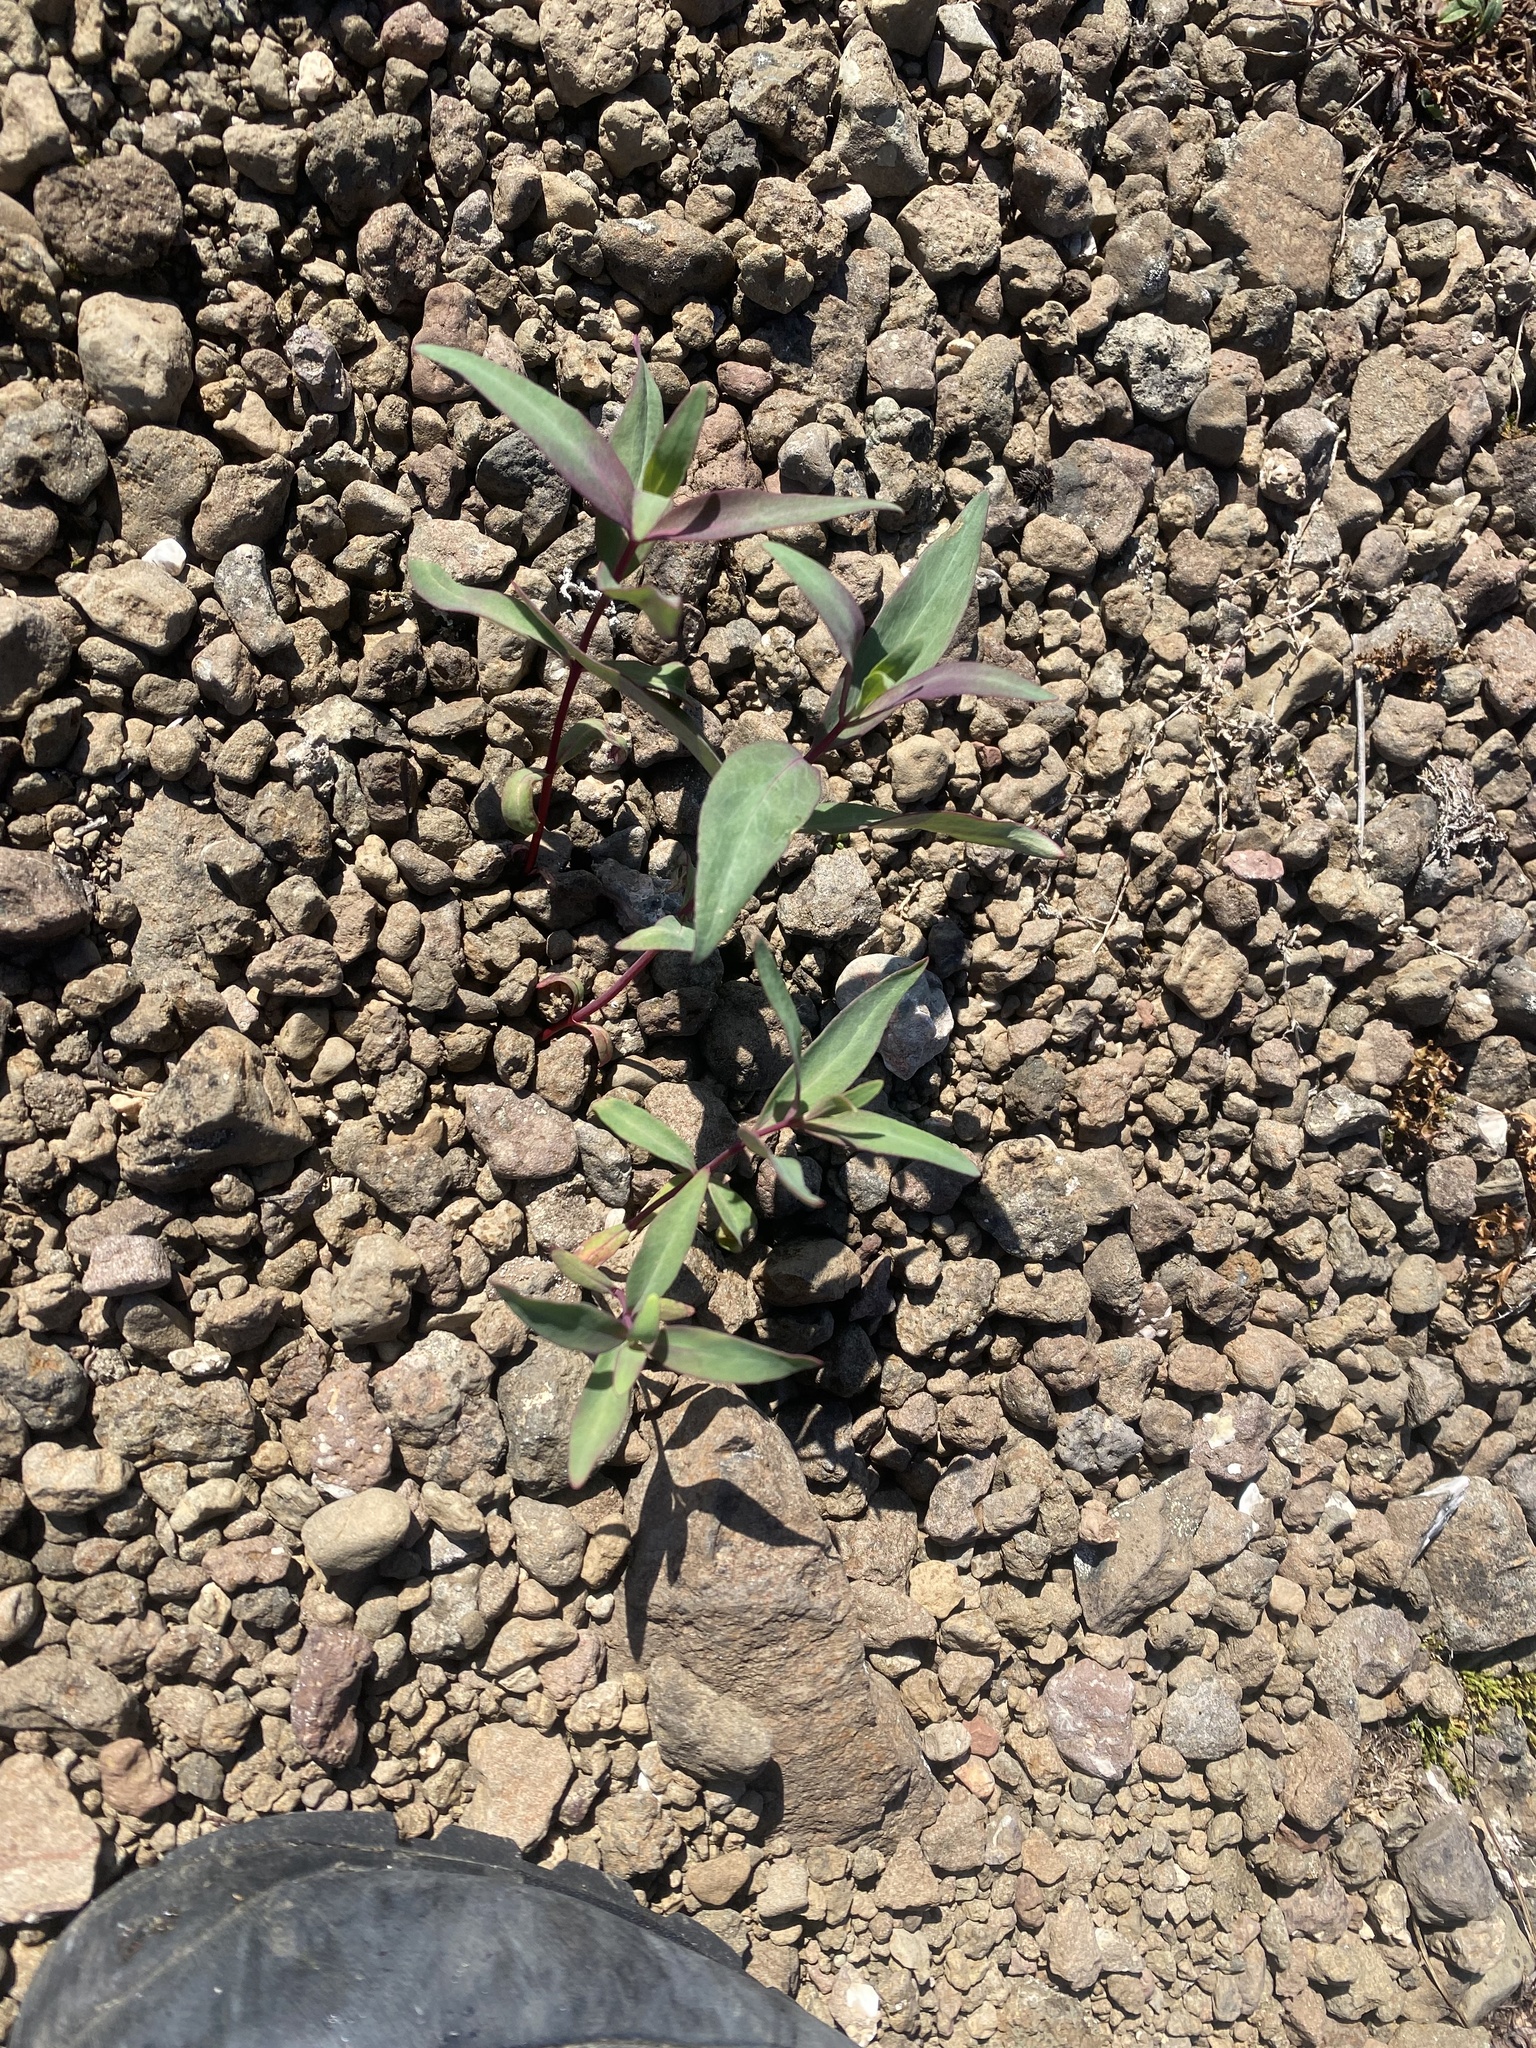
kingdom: Plantae
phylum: Tracheophyta
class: Magnoliopsida
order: Myrtales
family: Onagraceae
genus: Chamaenerion
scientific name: Chamaenerion latifolium
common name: Dwarf fireweed
